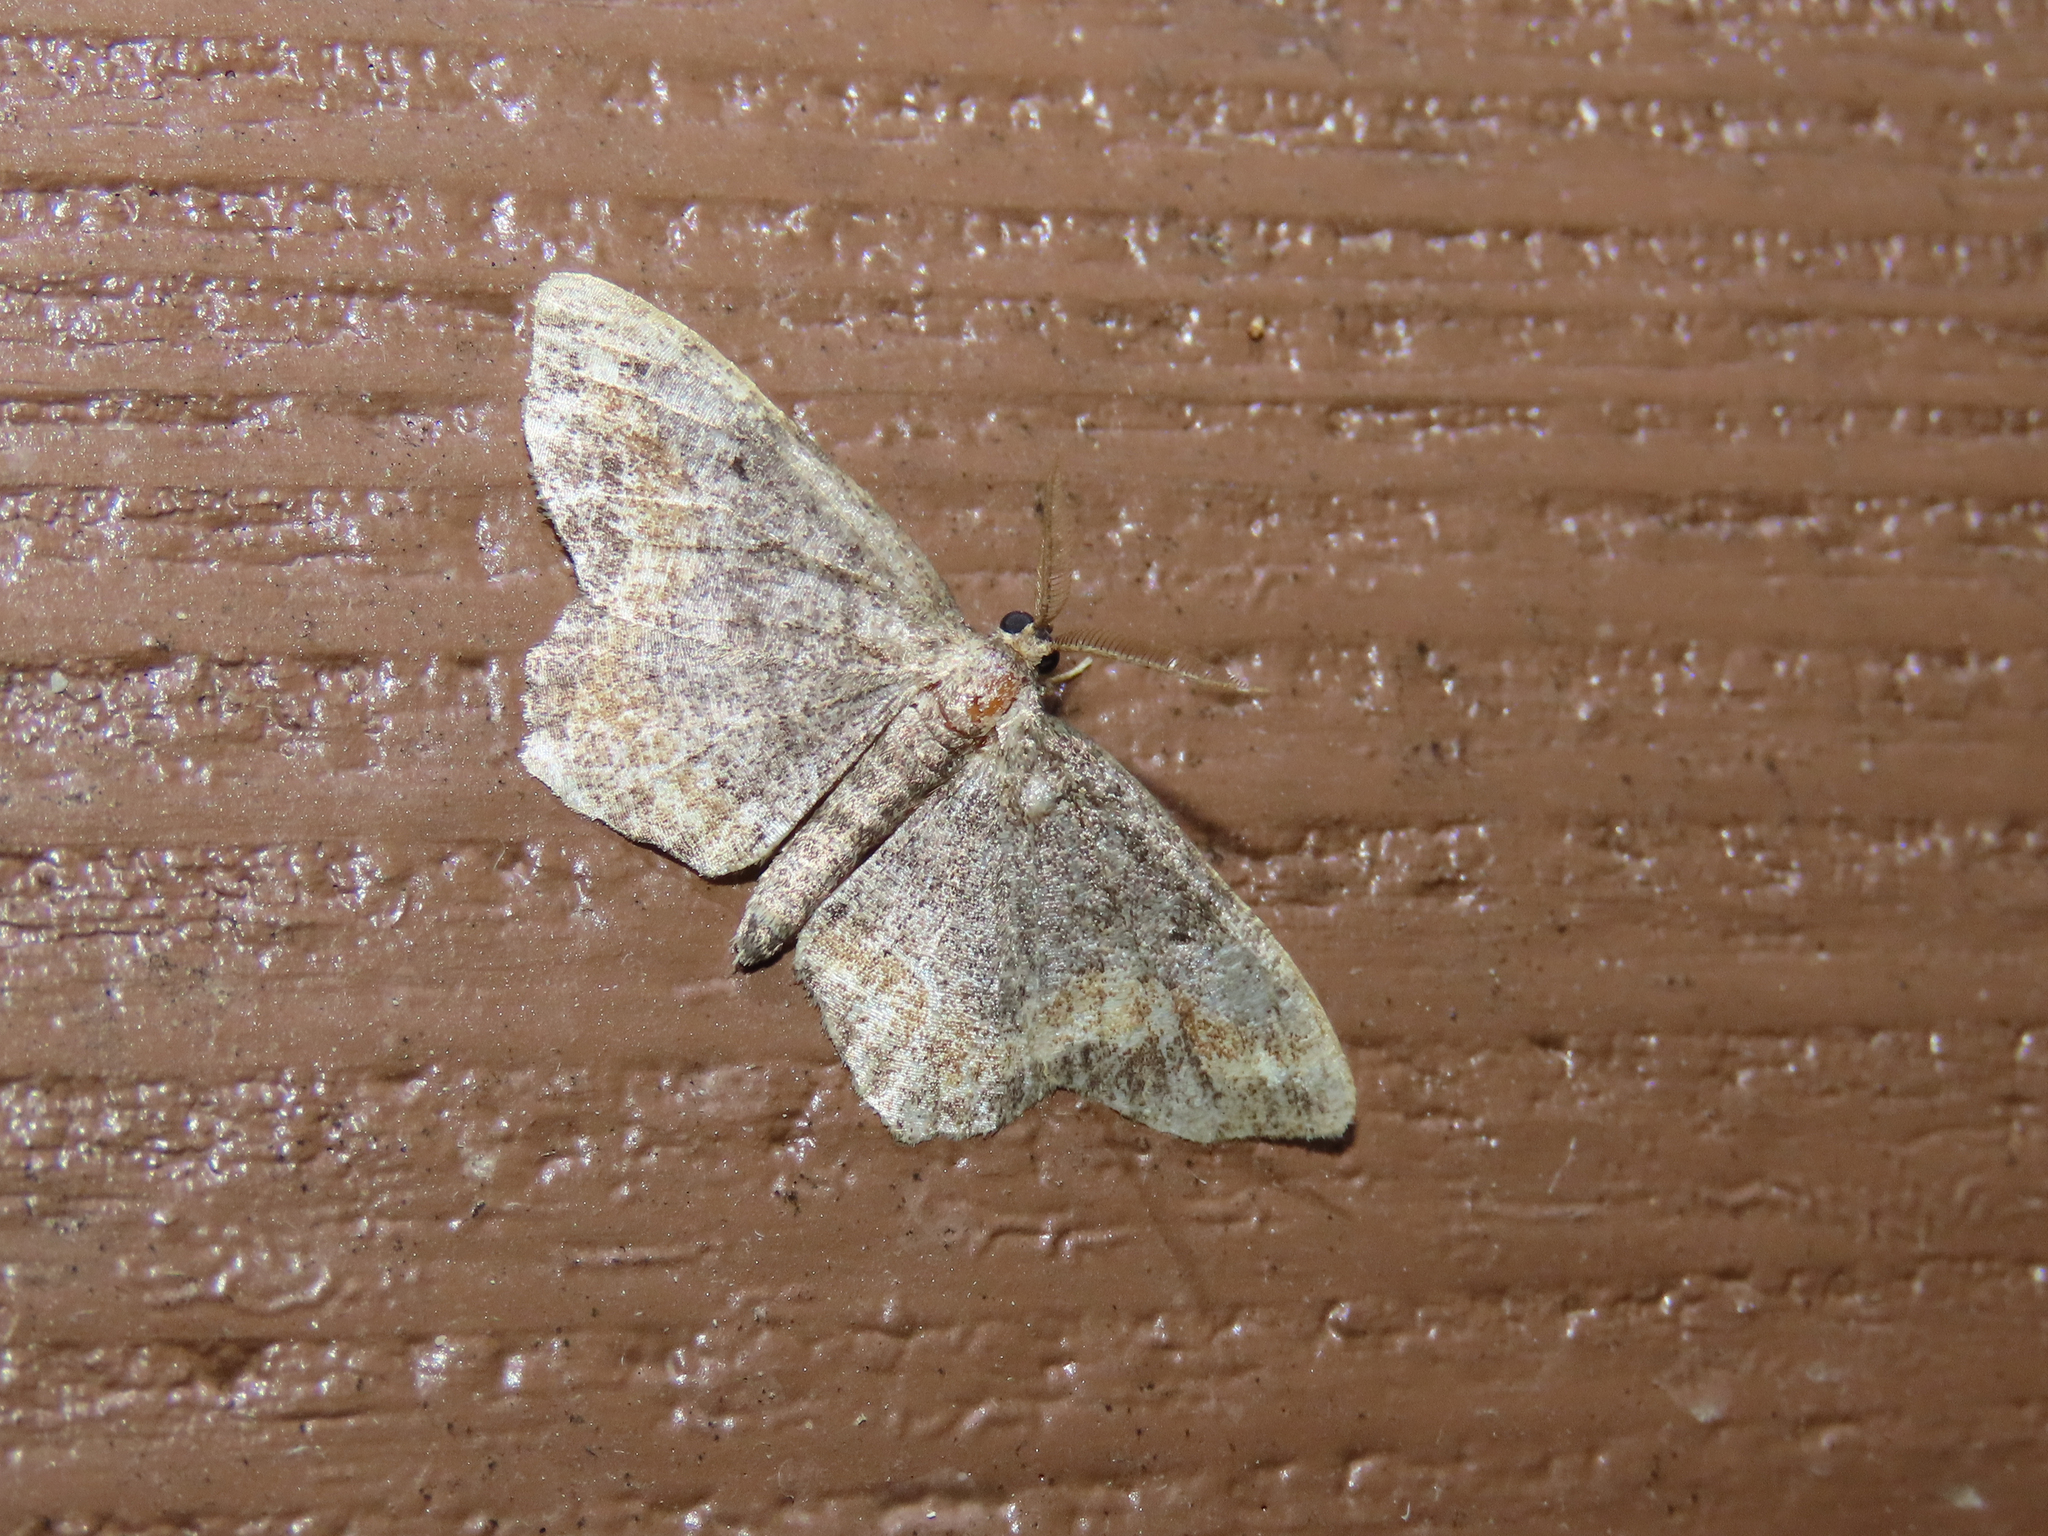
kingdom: Animalia
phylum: Arthropoda
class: Insecta
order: Lepidoptera
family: Geometridae
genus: Hypagyrtis
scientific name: Hypagyrtis unipunctata
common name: One-spotted variant
